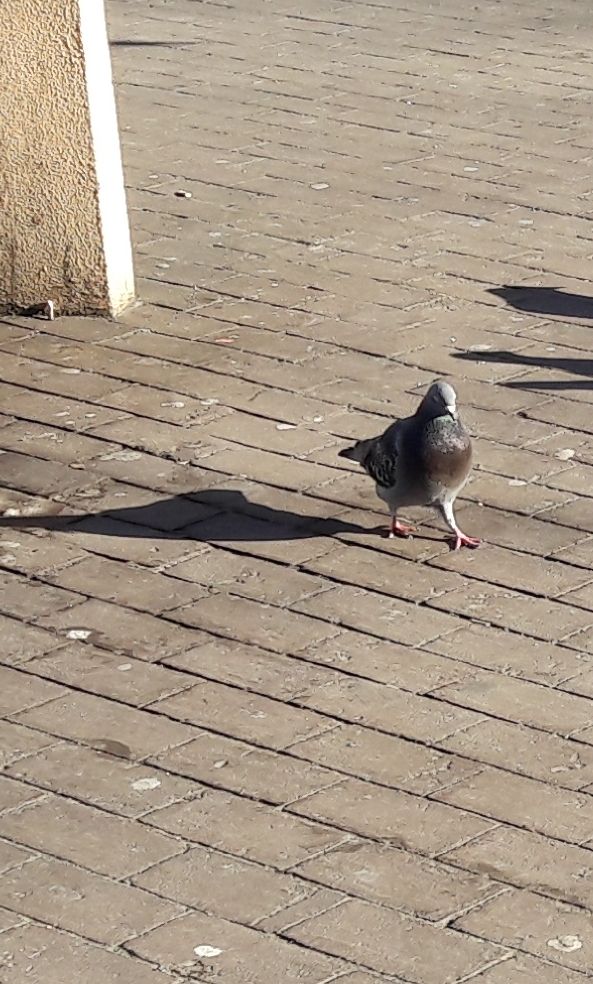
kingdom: Animalia
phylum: Chordata
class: Aves
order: Columbiformes
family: Columbidae
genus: Columba
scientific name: Columba livia
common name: Rock pigeon
